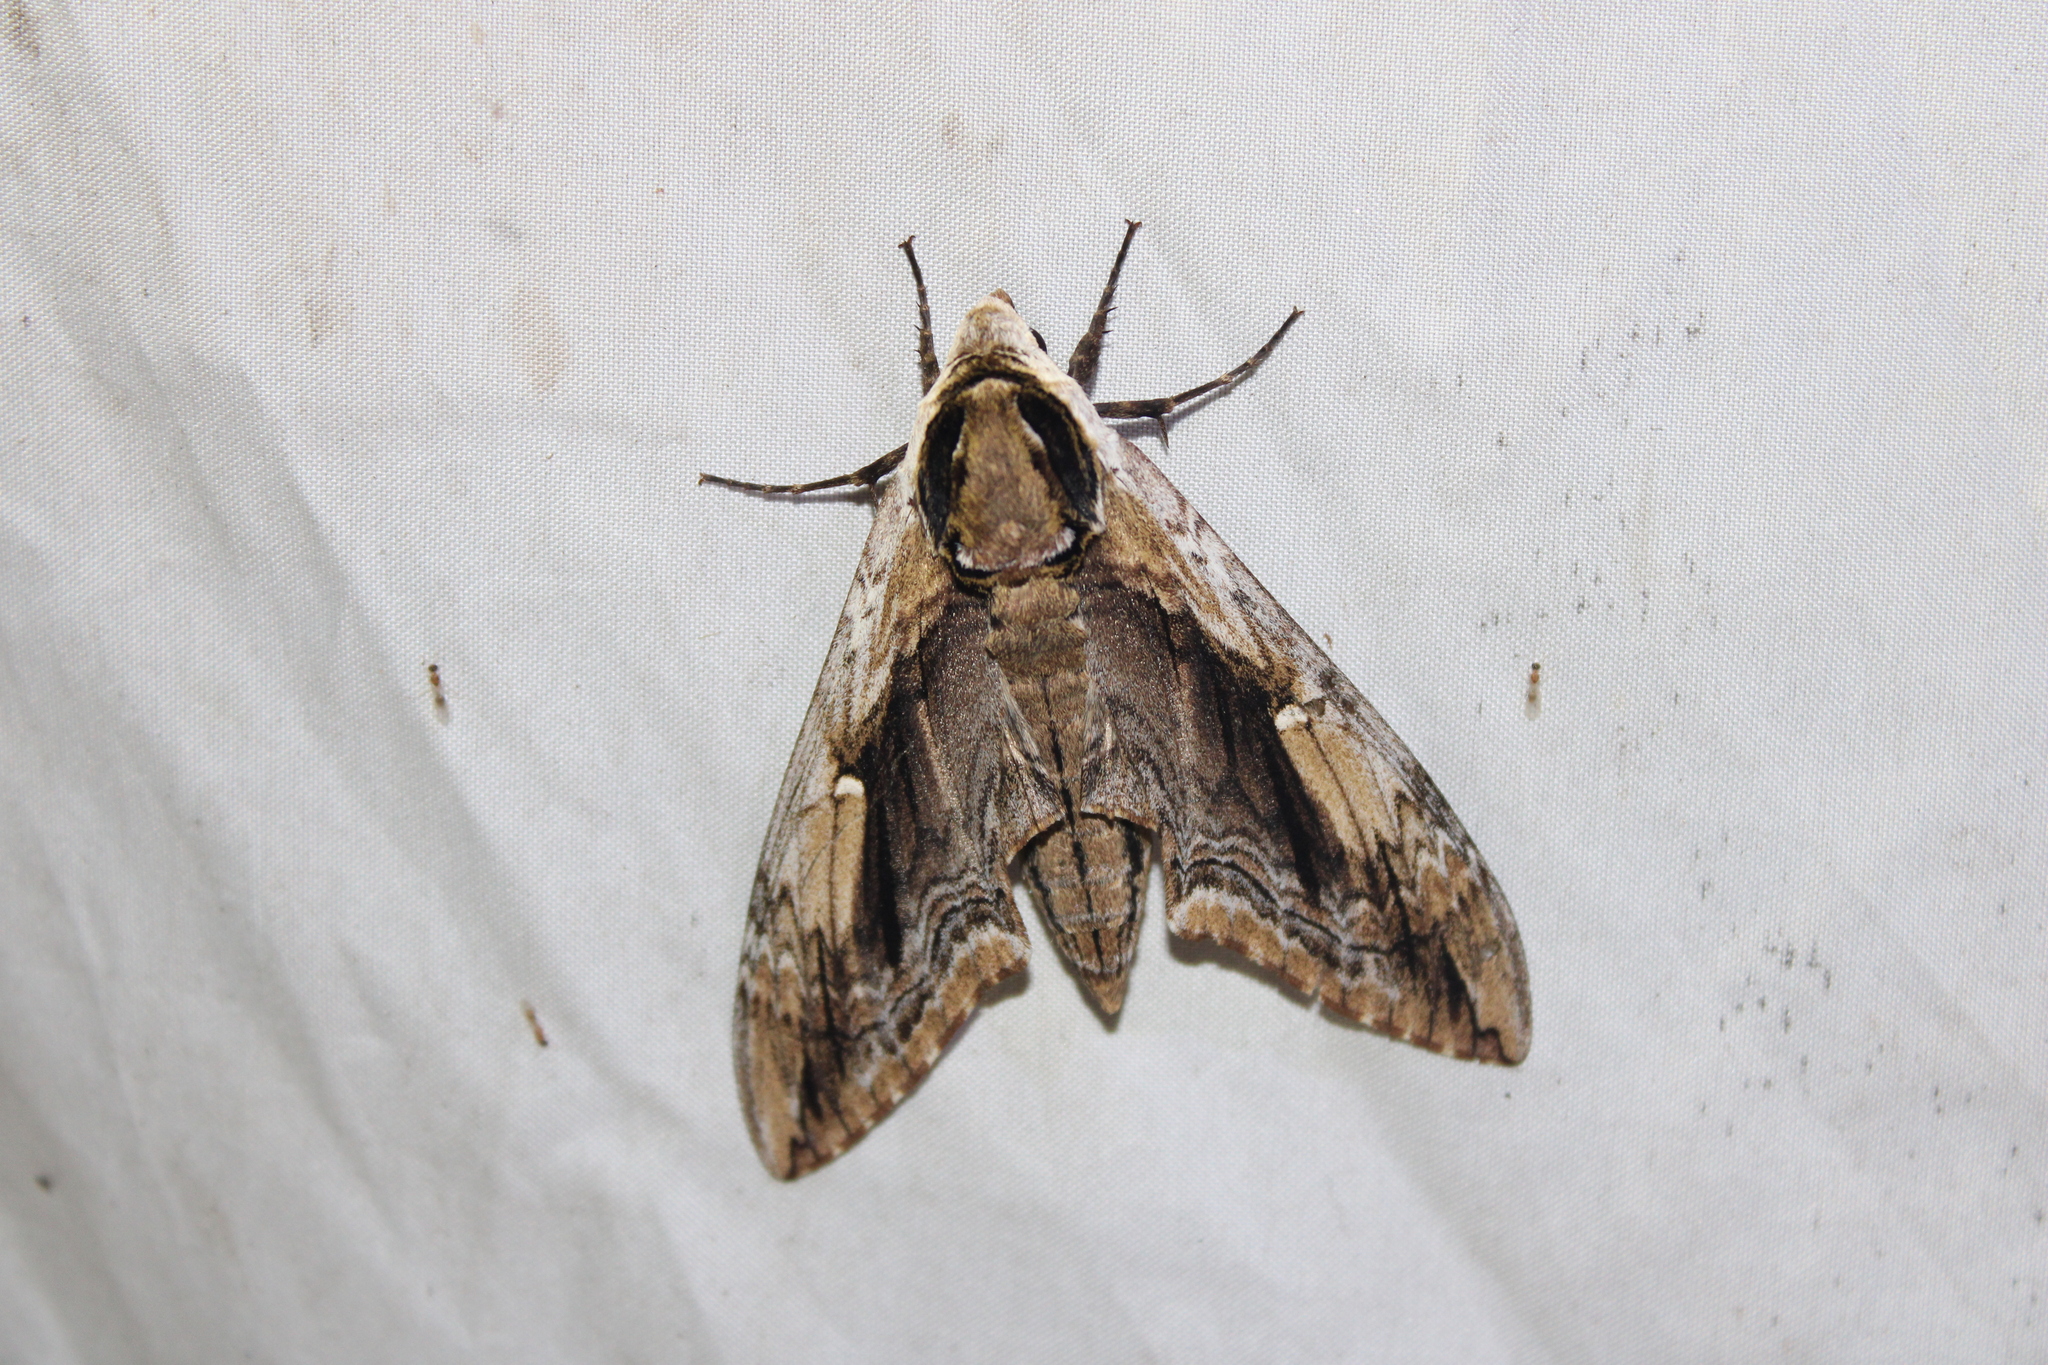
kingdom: Animalia
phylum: Arthropoda
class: Insecta
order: Lepidoptera
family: Sphingidae
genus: Ceratomia
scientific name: Ceratomia amyntor
